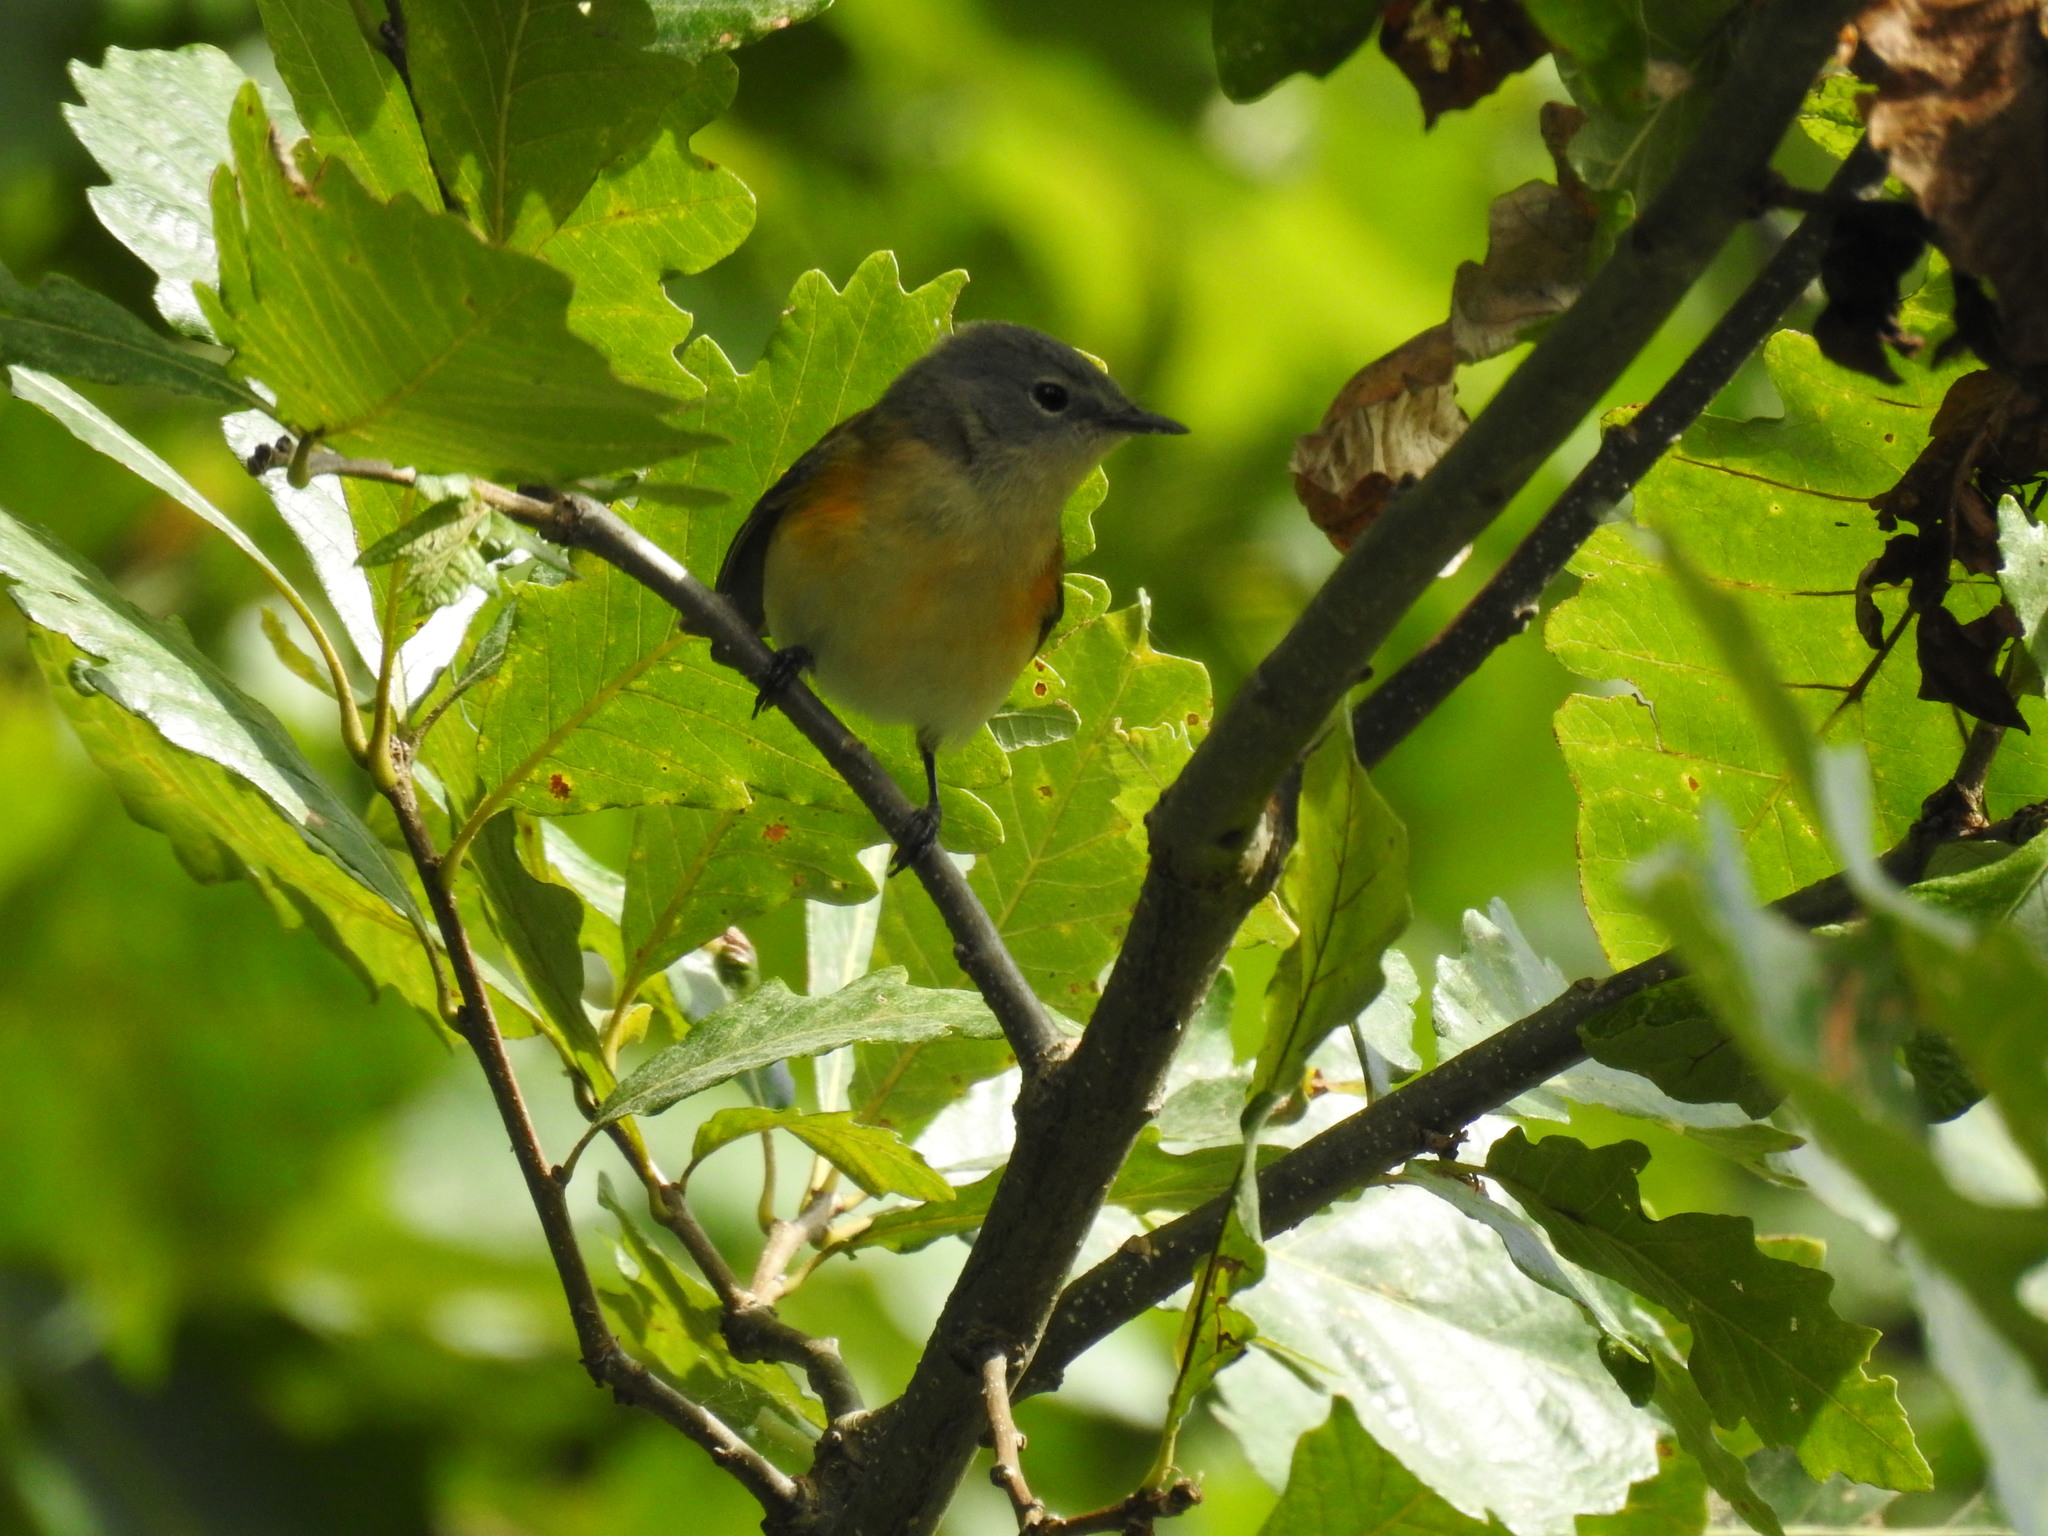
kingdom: Animalia
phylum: Chordata
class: Aves
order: Passeriformes
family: Parulidae
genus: Setophaga
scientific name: Setophaga ruticilla
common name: American redstart
